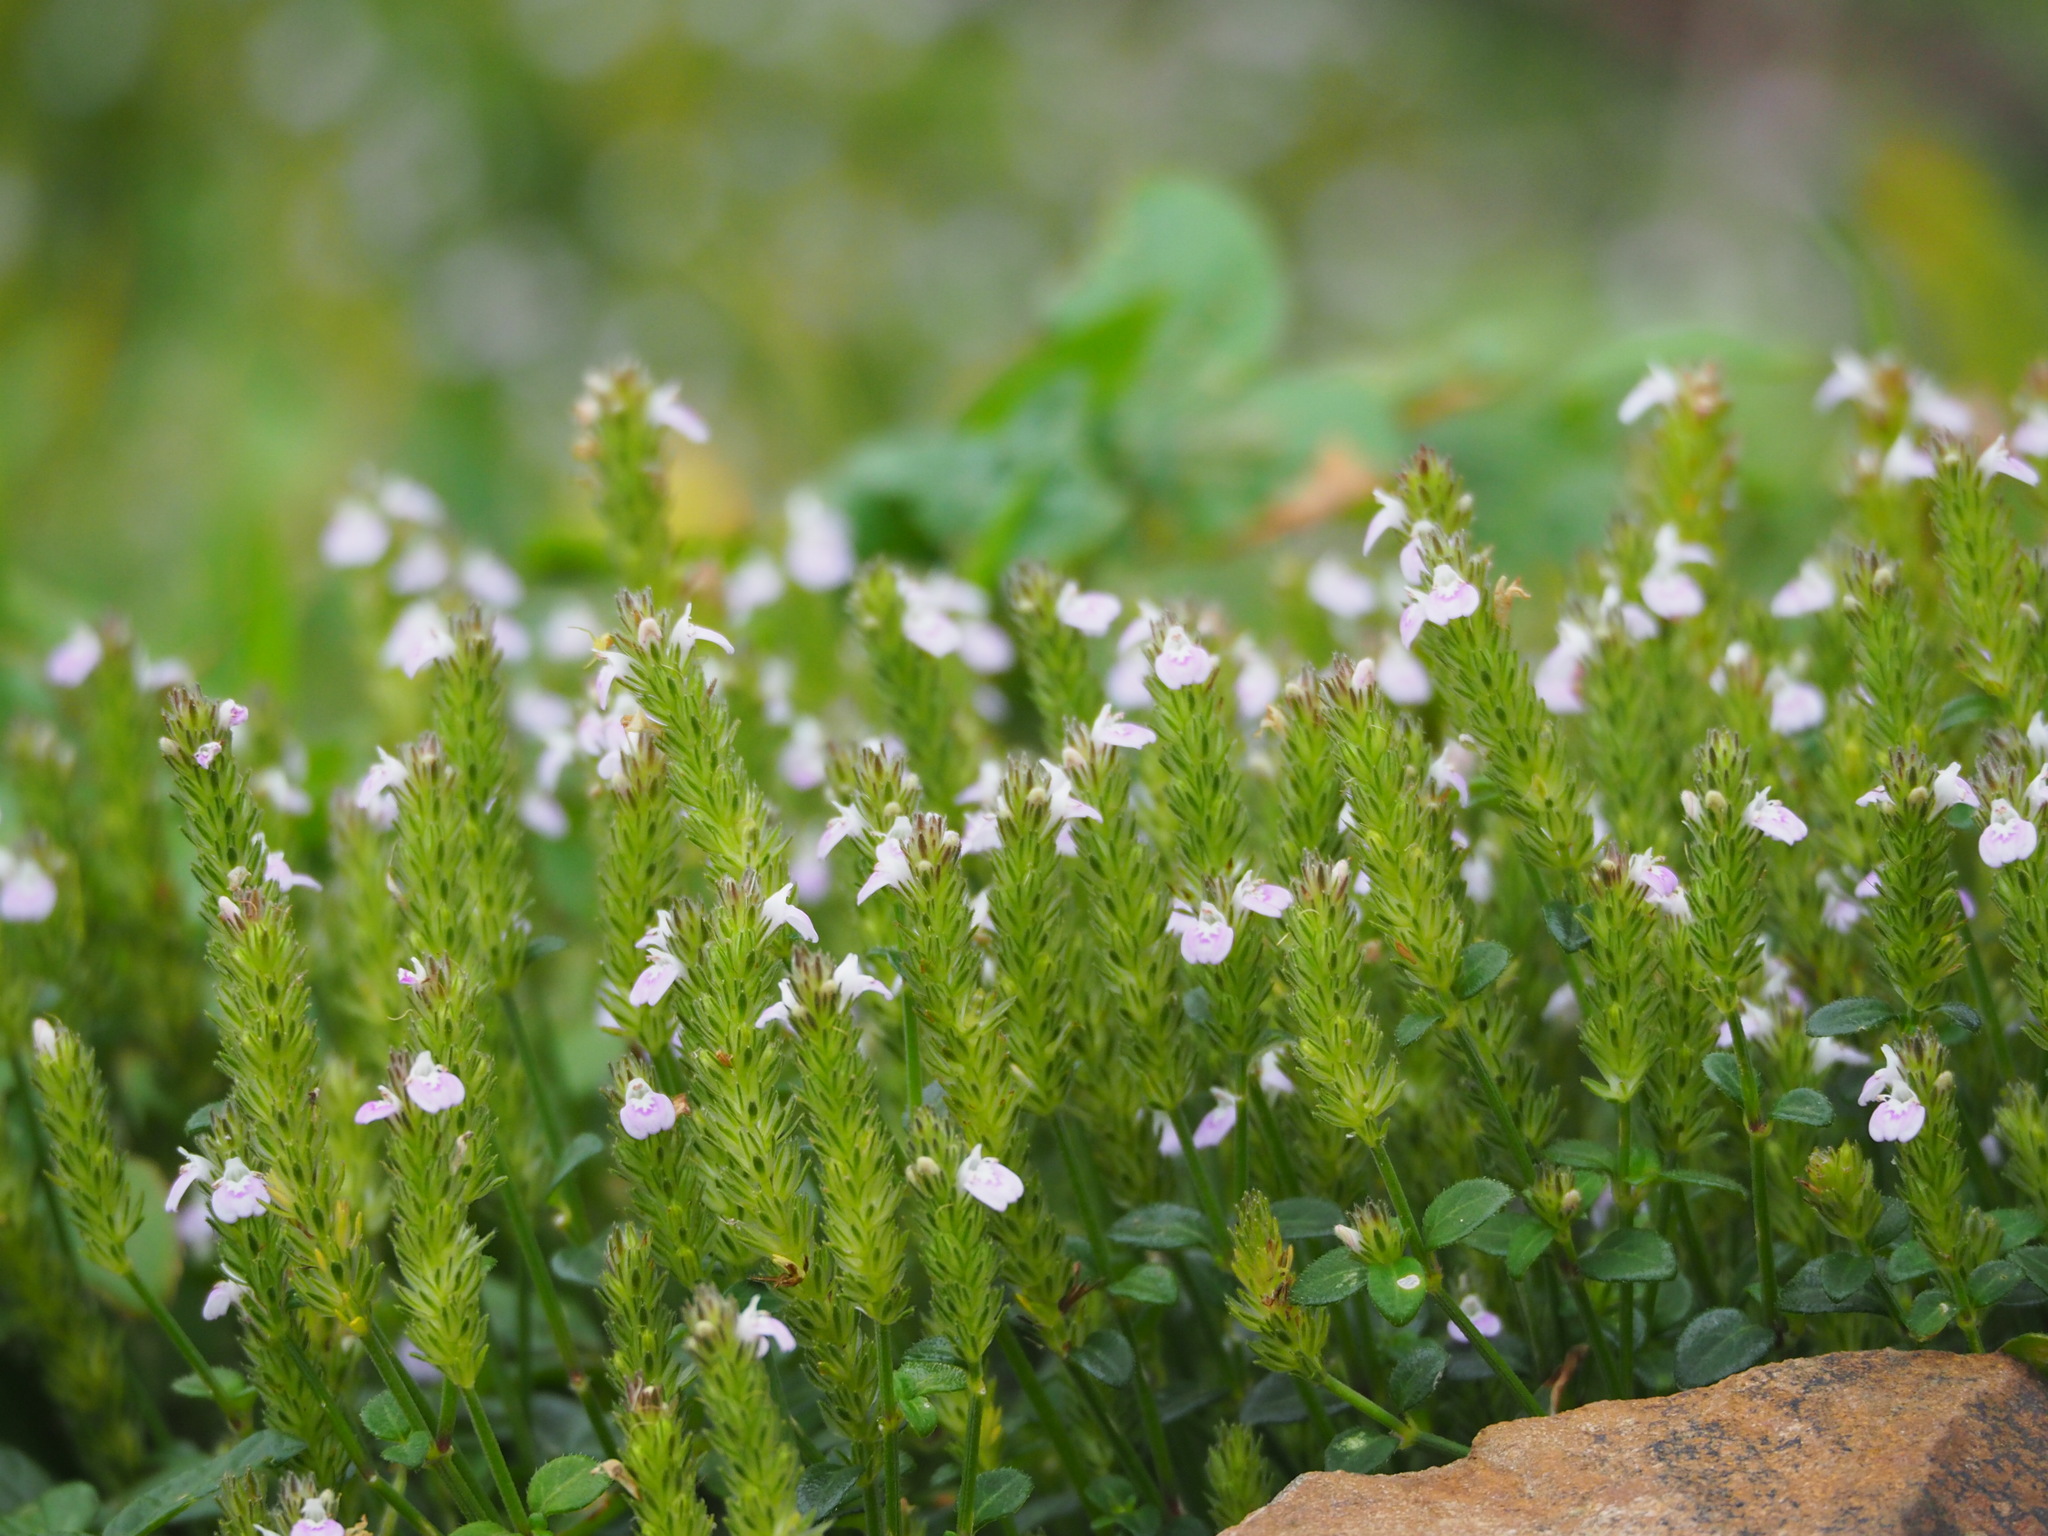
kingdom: Plantae
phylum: Tracheophyta
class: Magnoliopsida
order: Lamiales
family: Acanthaceae
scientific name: Acanthaceae
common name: Acanthaceae
